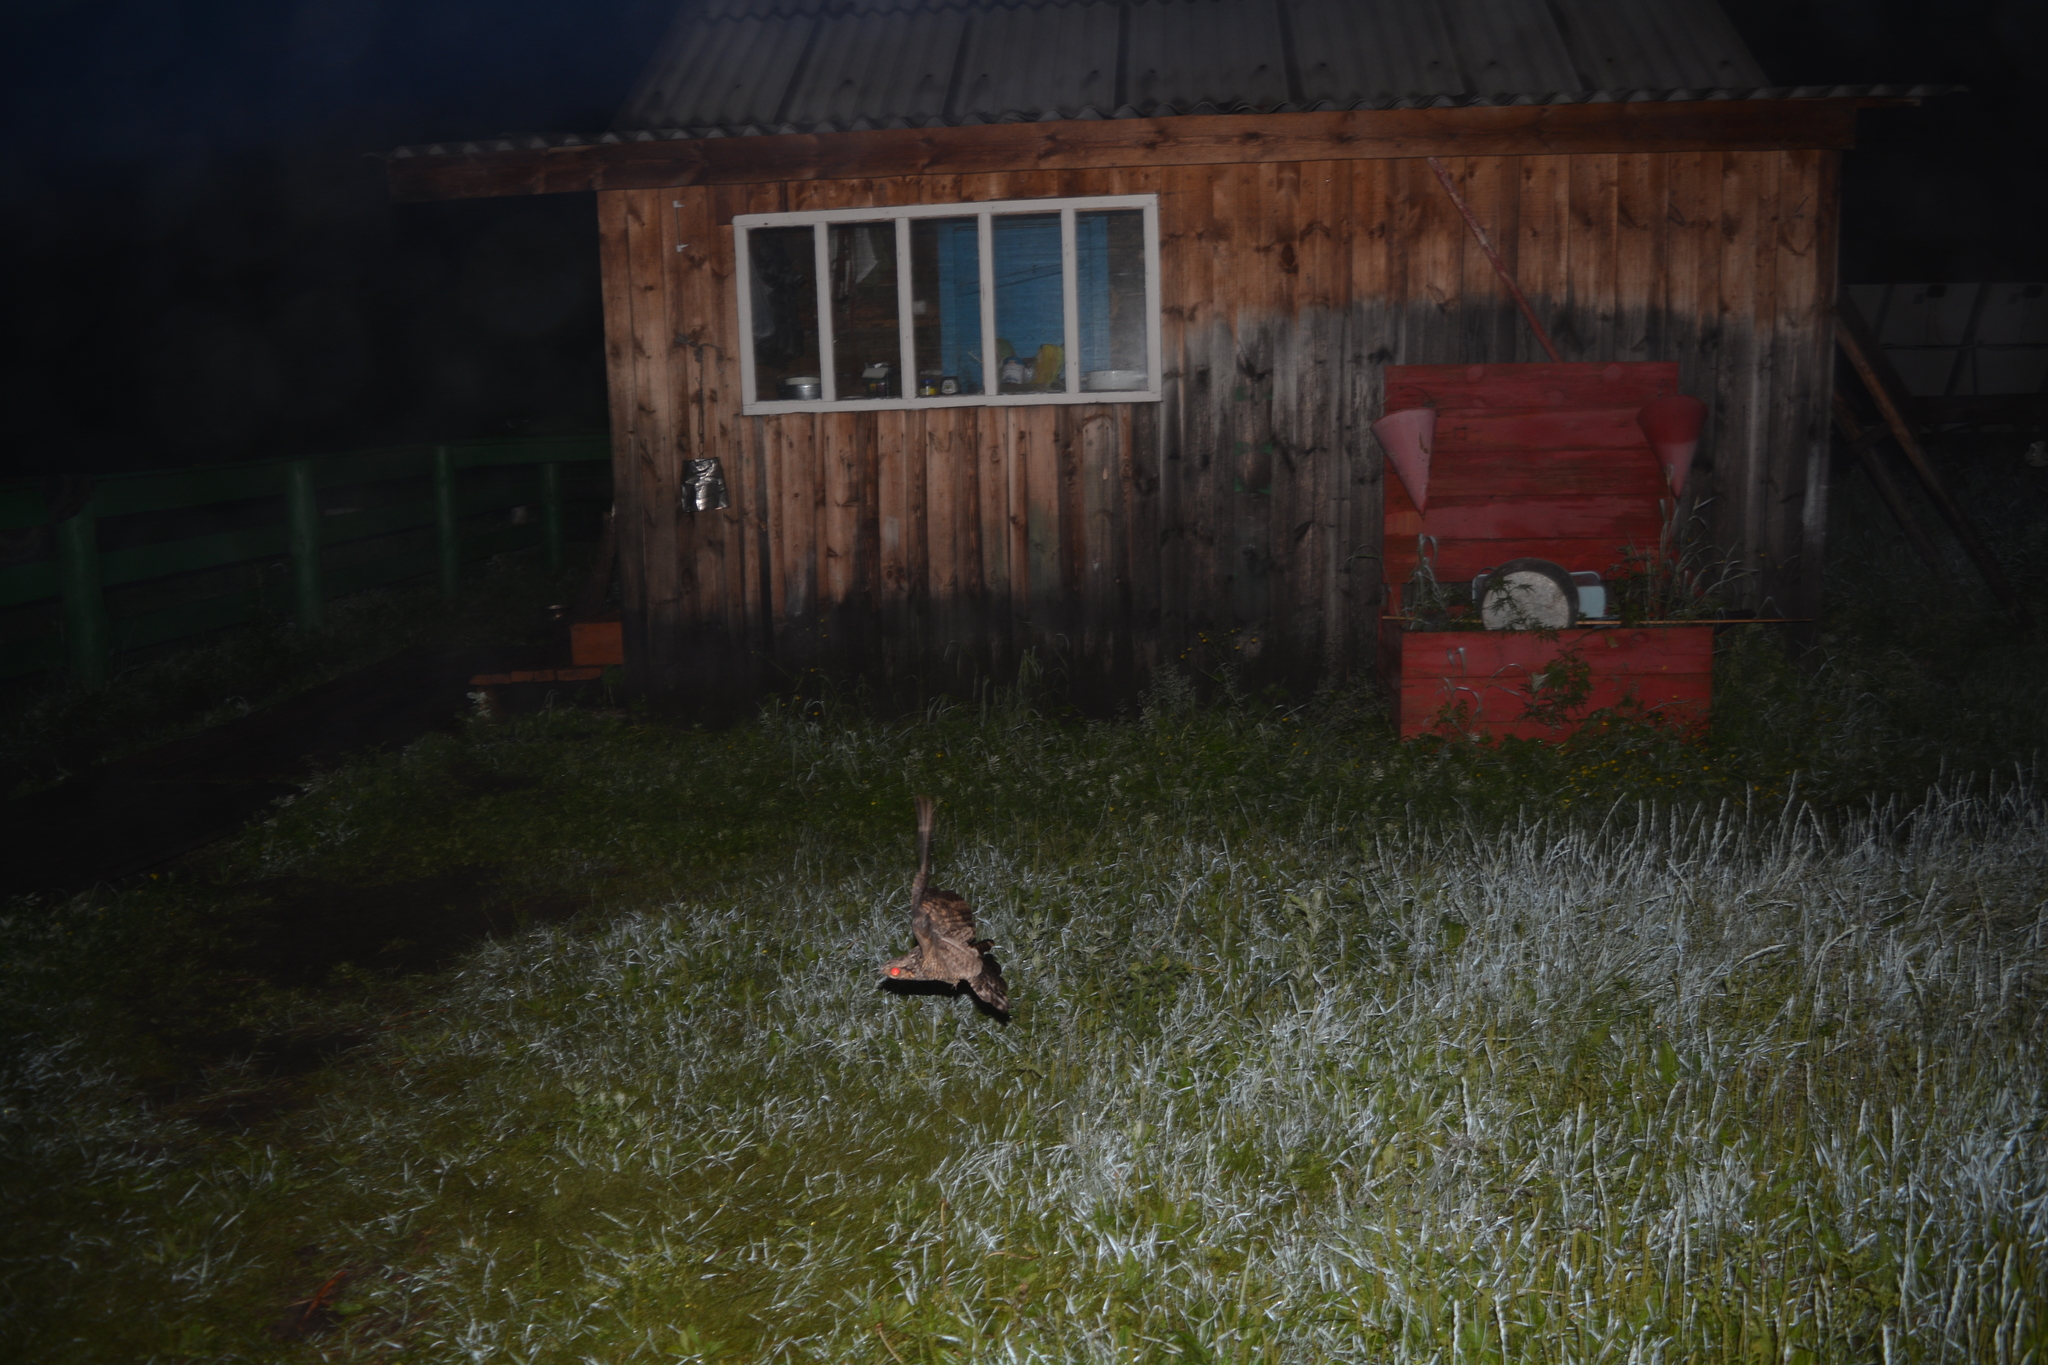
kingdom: Animalia
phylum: Chordata
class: Aves
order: Caprimulgiformes
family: Caprimulgidae
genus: Caprimulgus
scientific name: Caprimulgus europaeus
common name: European nightjar
